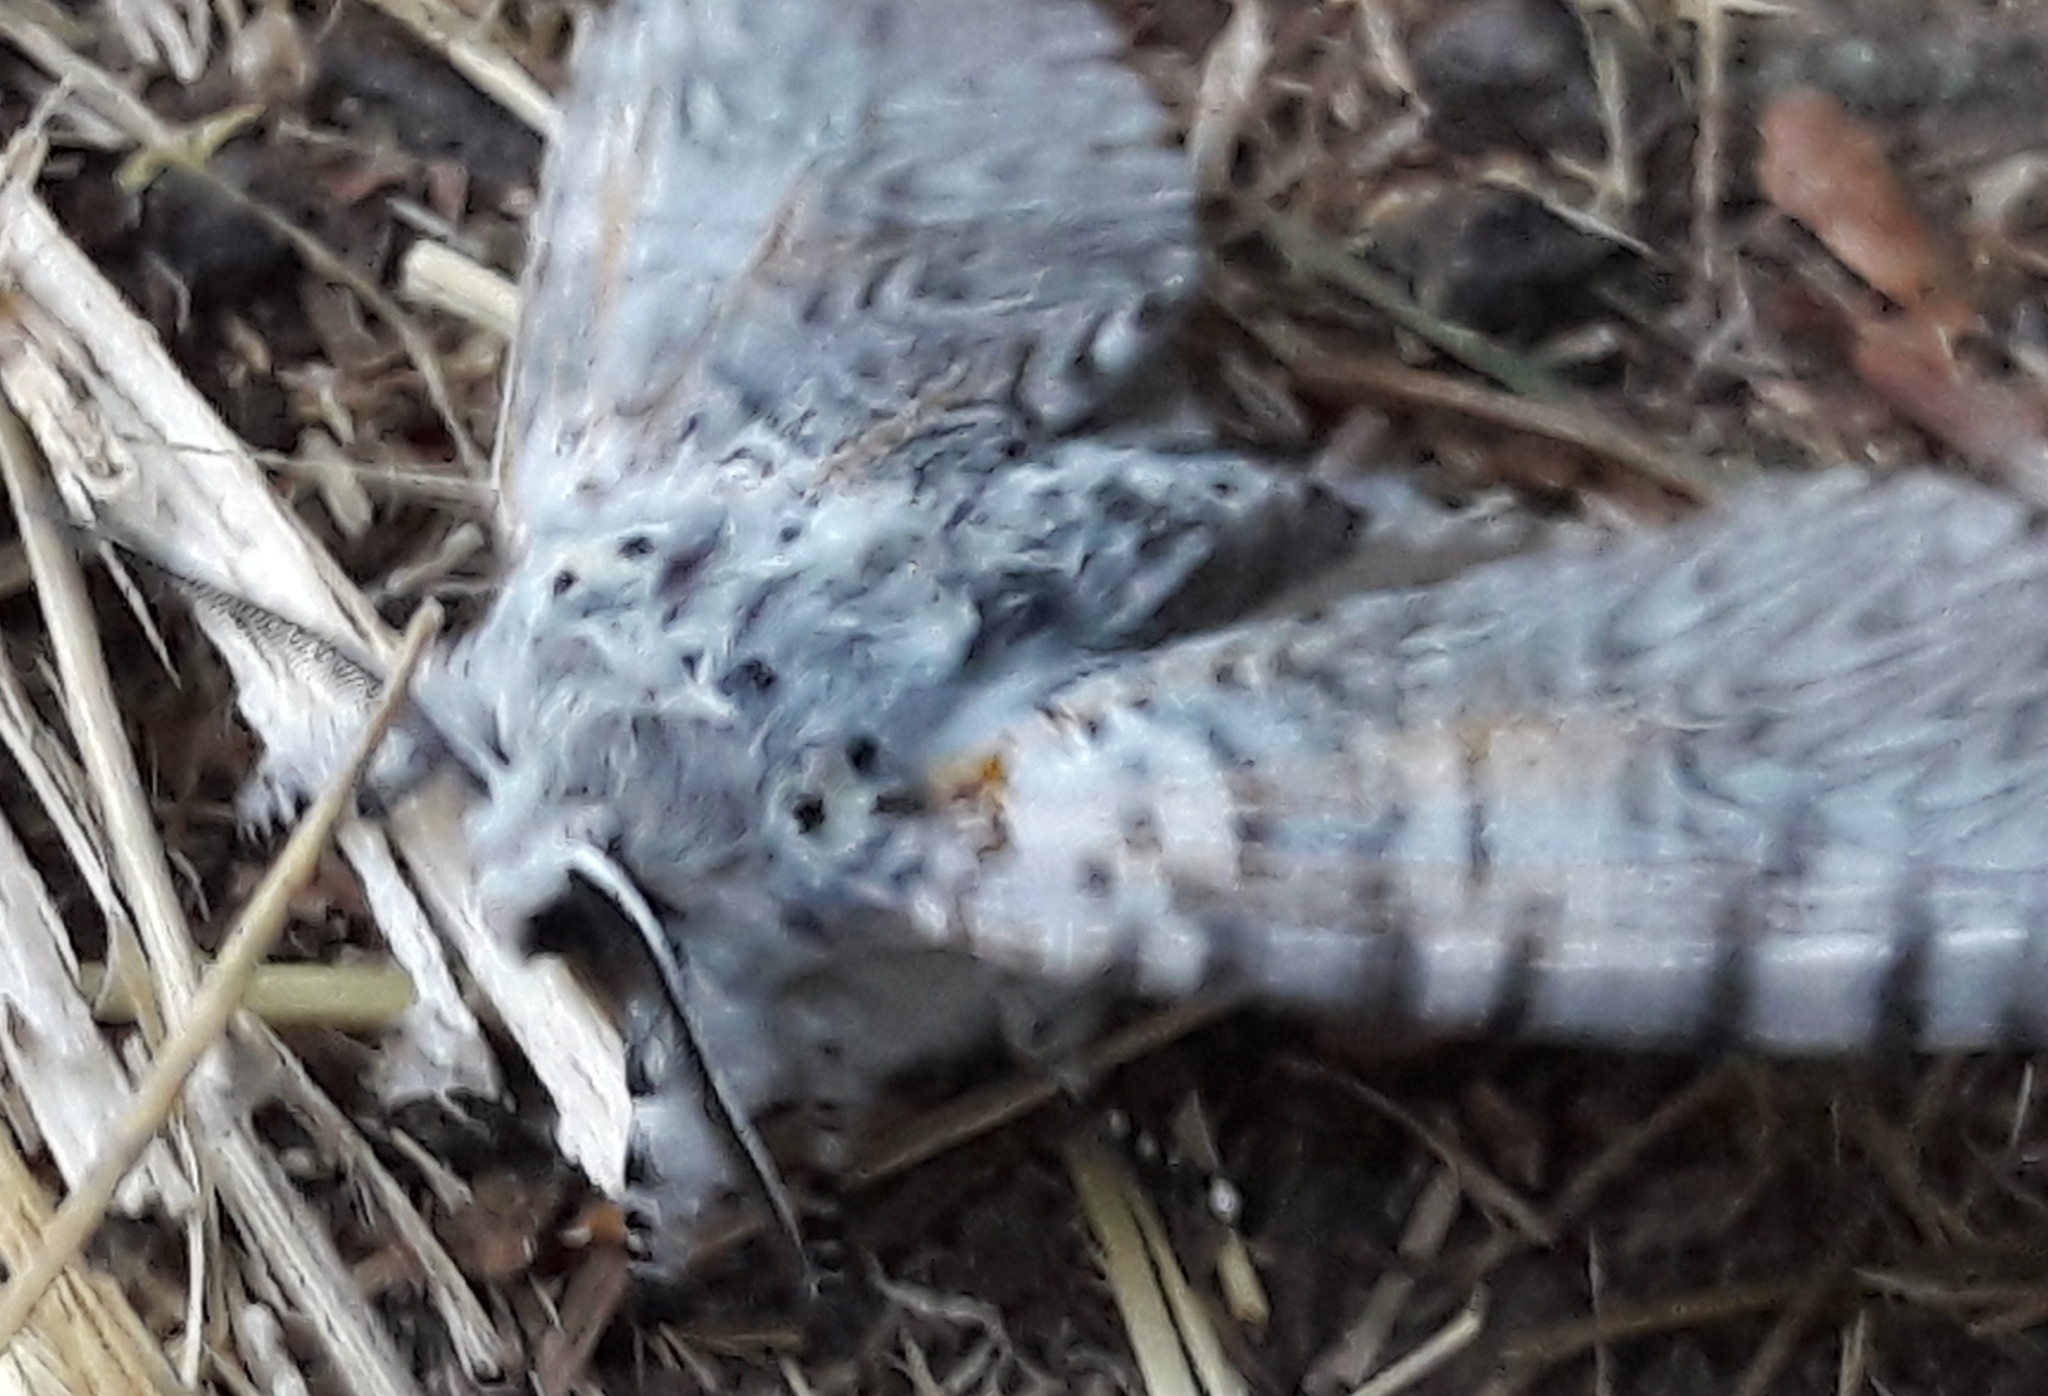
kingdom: Animalia
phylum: Arthropoda
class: Insecta
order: Lepidoptera
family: Notodontidae
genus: Cerura
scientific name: Cerura vinula
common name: Puss moth
